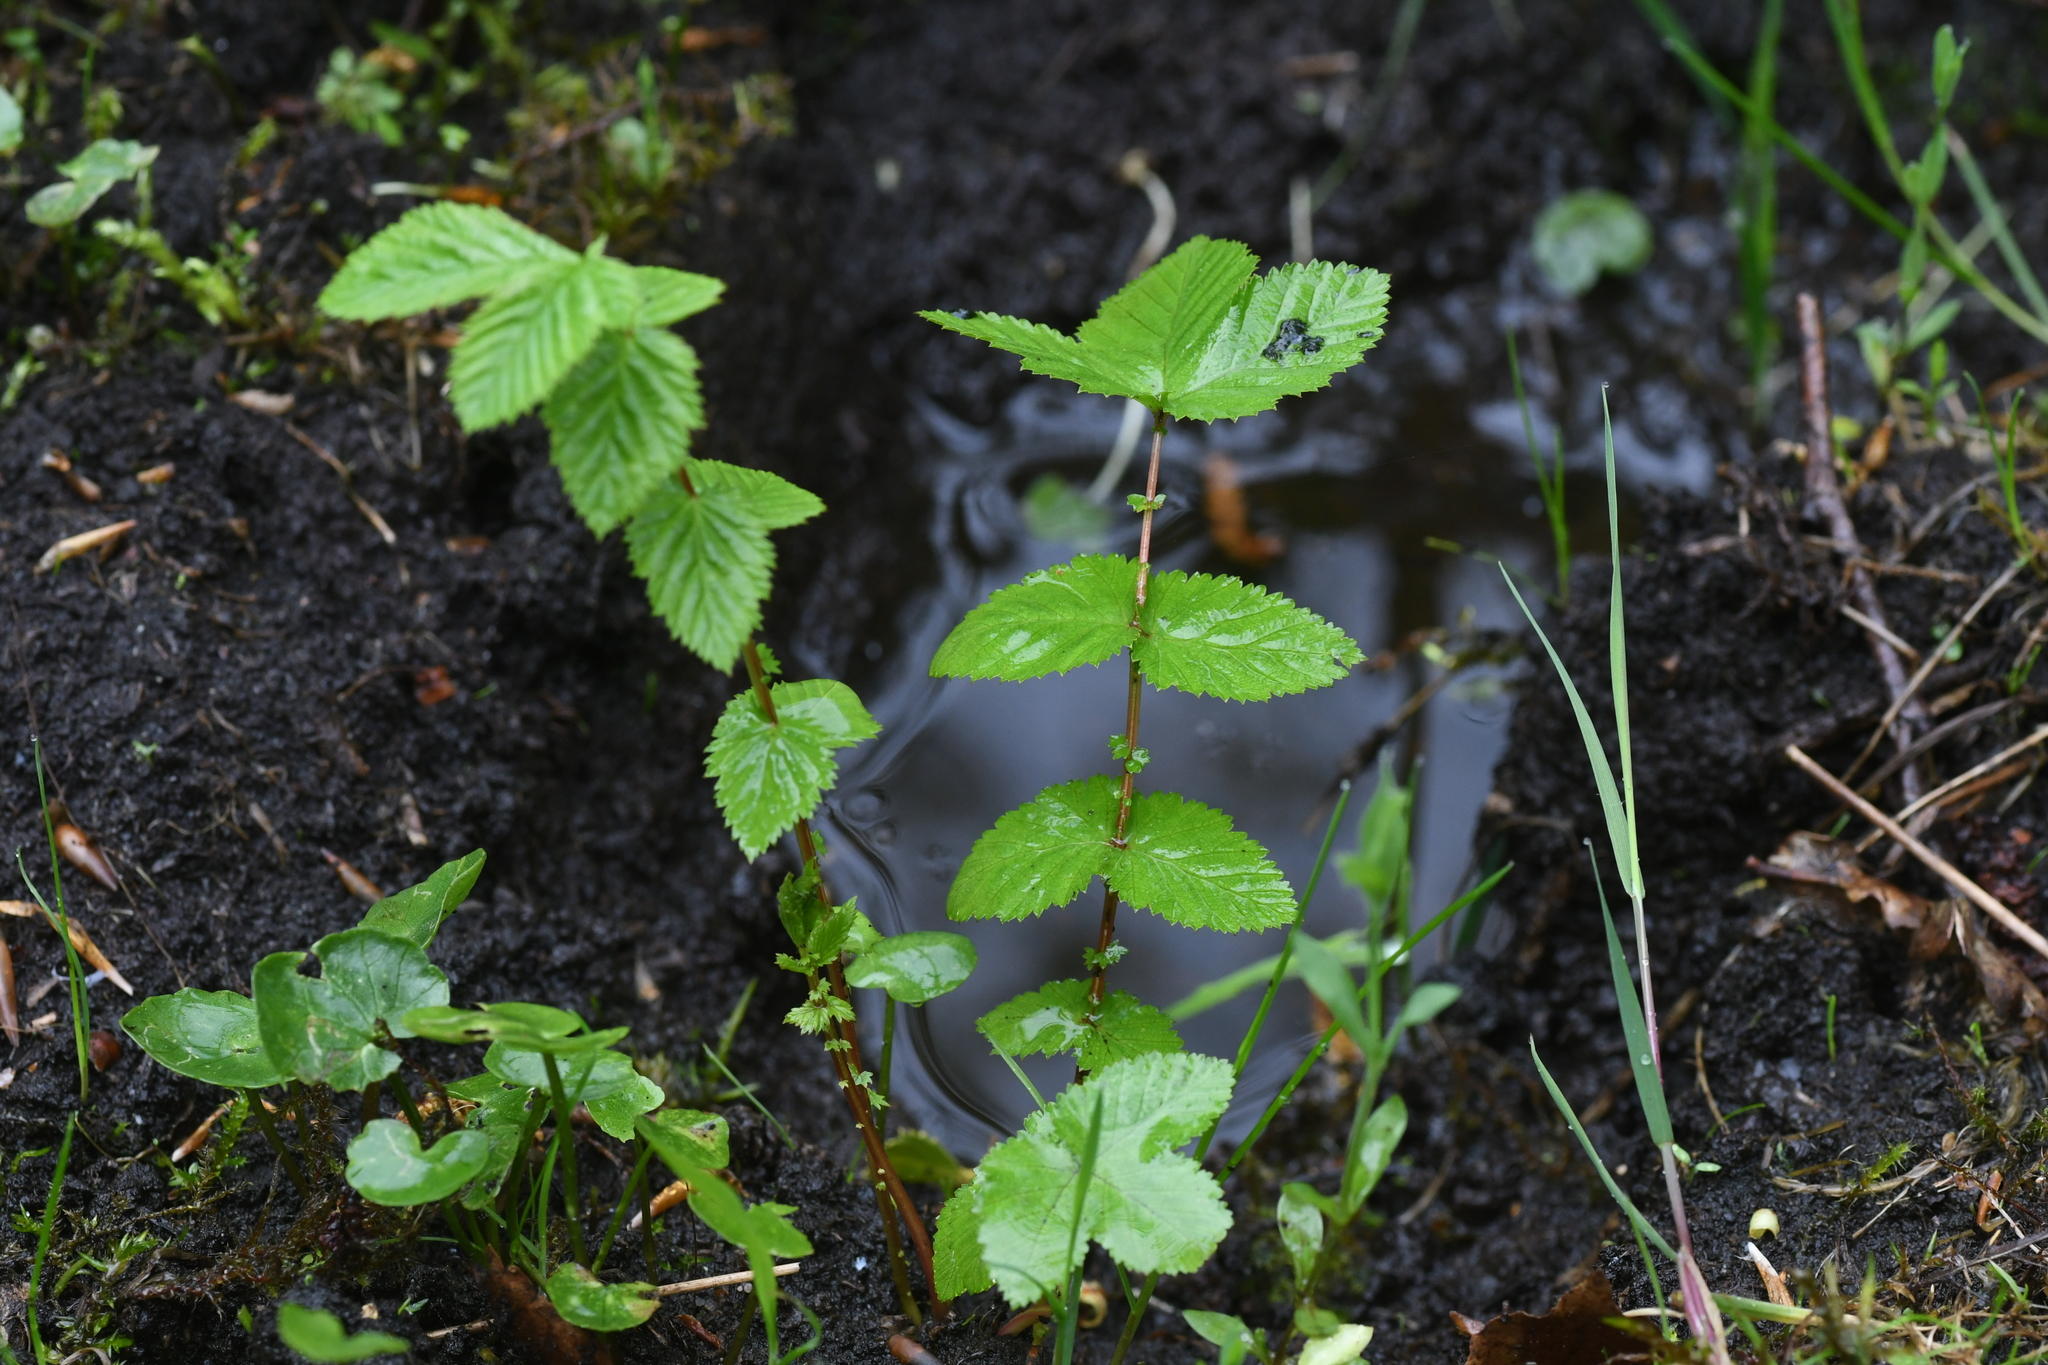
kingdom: Plantae
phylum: Tracheophyta
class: Magnoliopsida
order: Rosales
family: Rosaceae
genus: Filipendula
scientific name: Filipendula ulmaria
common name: Meadowsweet
